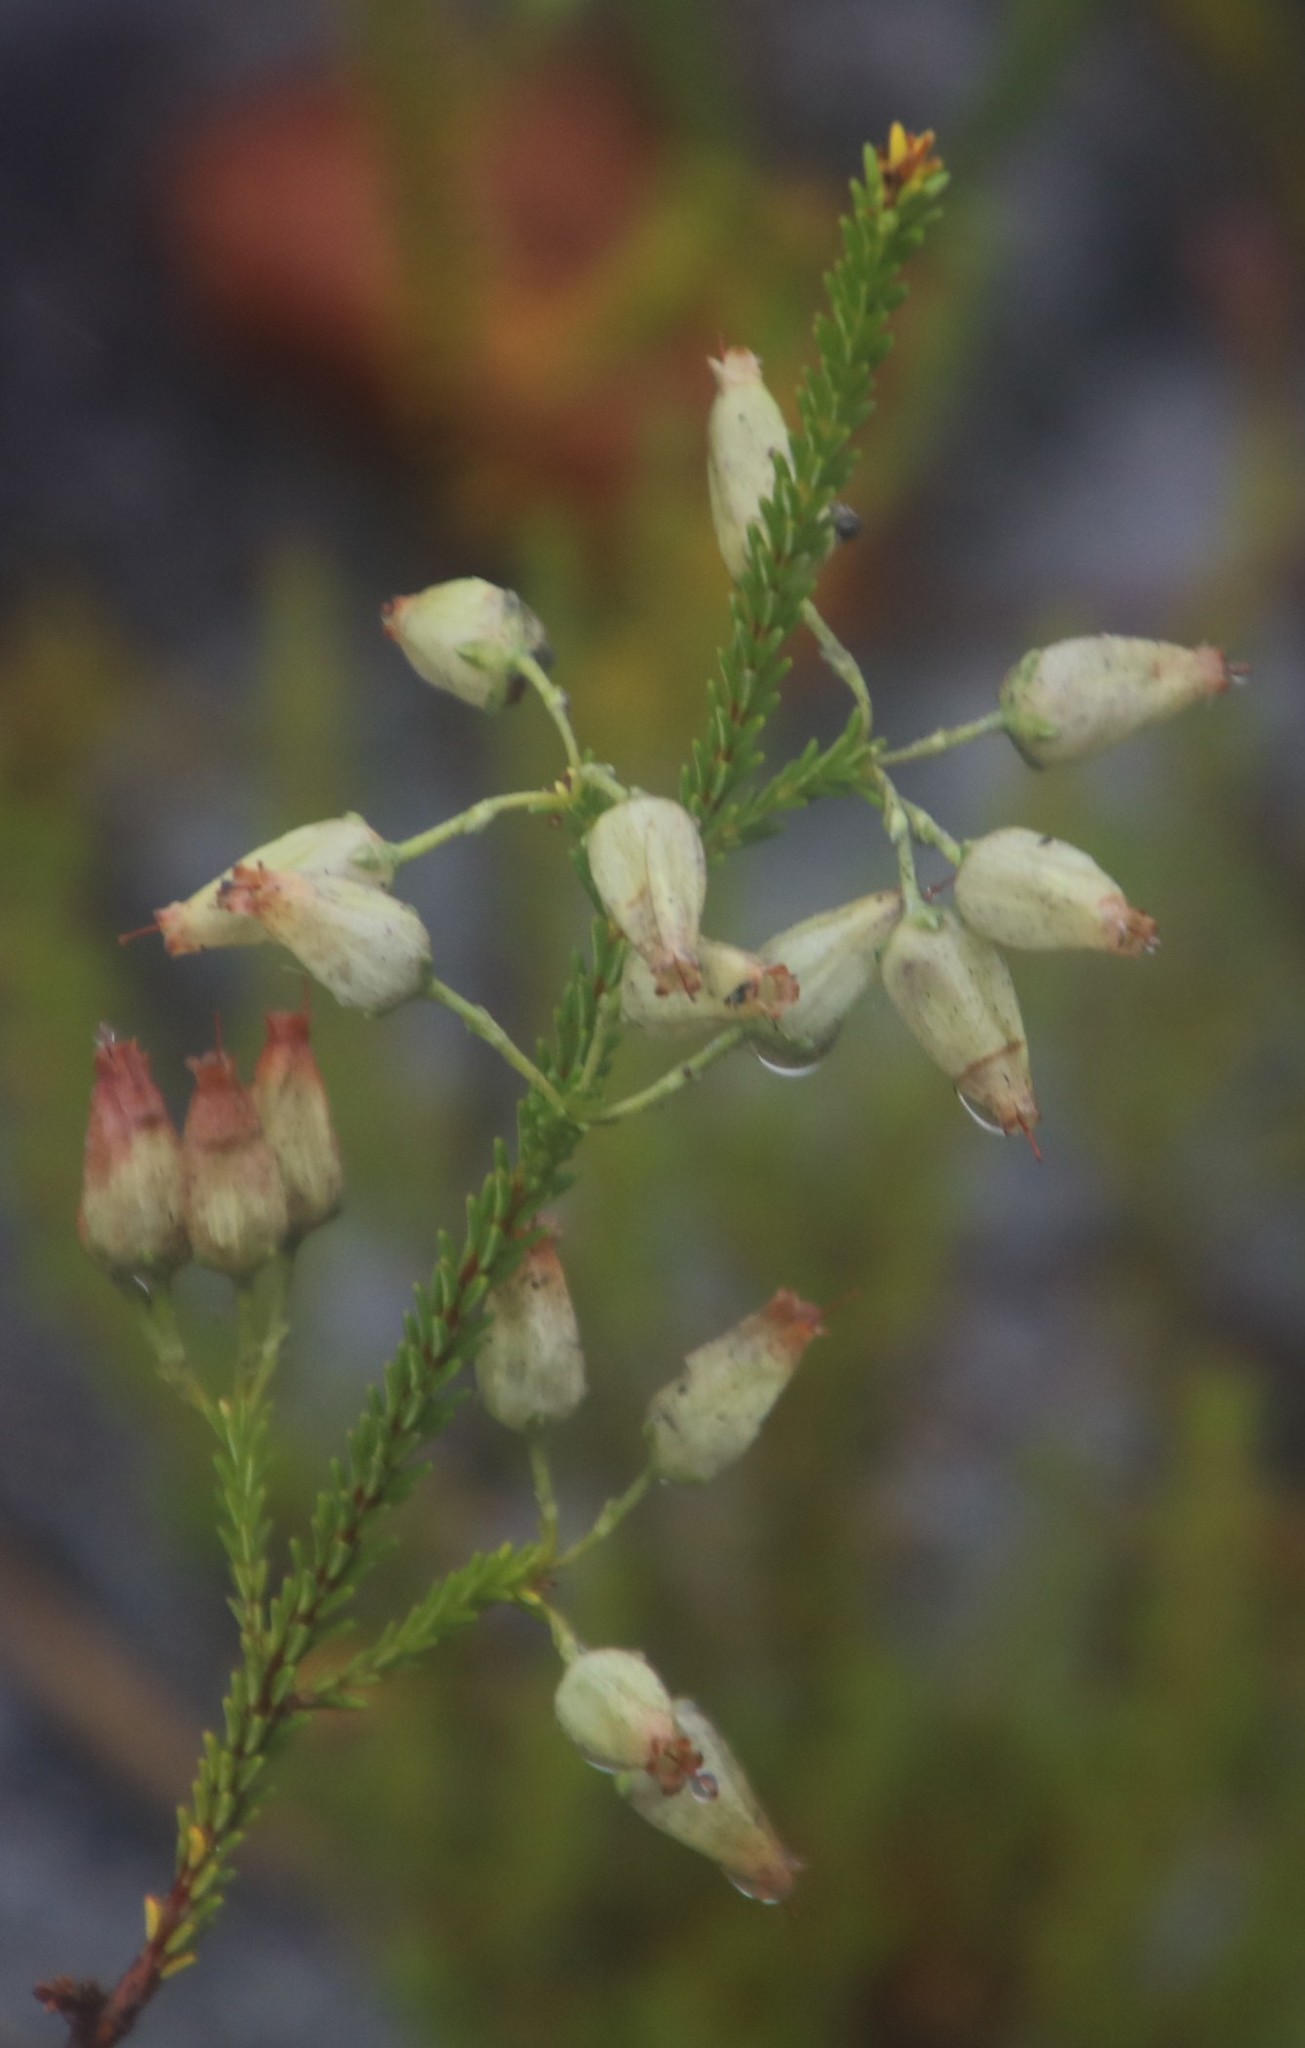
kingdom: Plantae
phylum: Tracheophyta
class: Magnoliopsida
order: Ericales
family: Ericaceae
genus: Erica
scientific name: Erica urna-viridis
